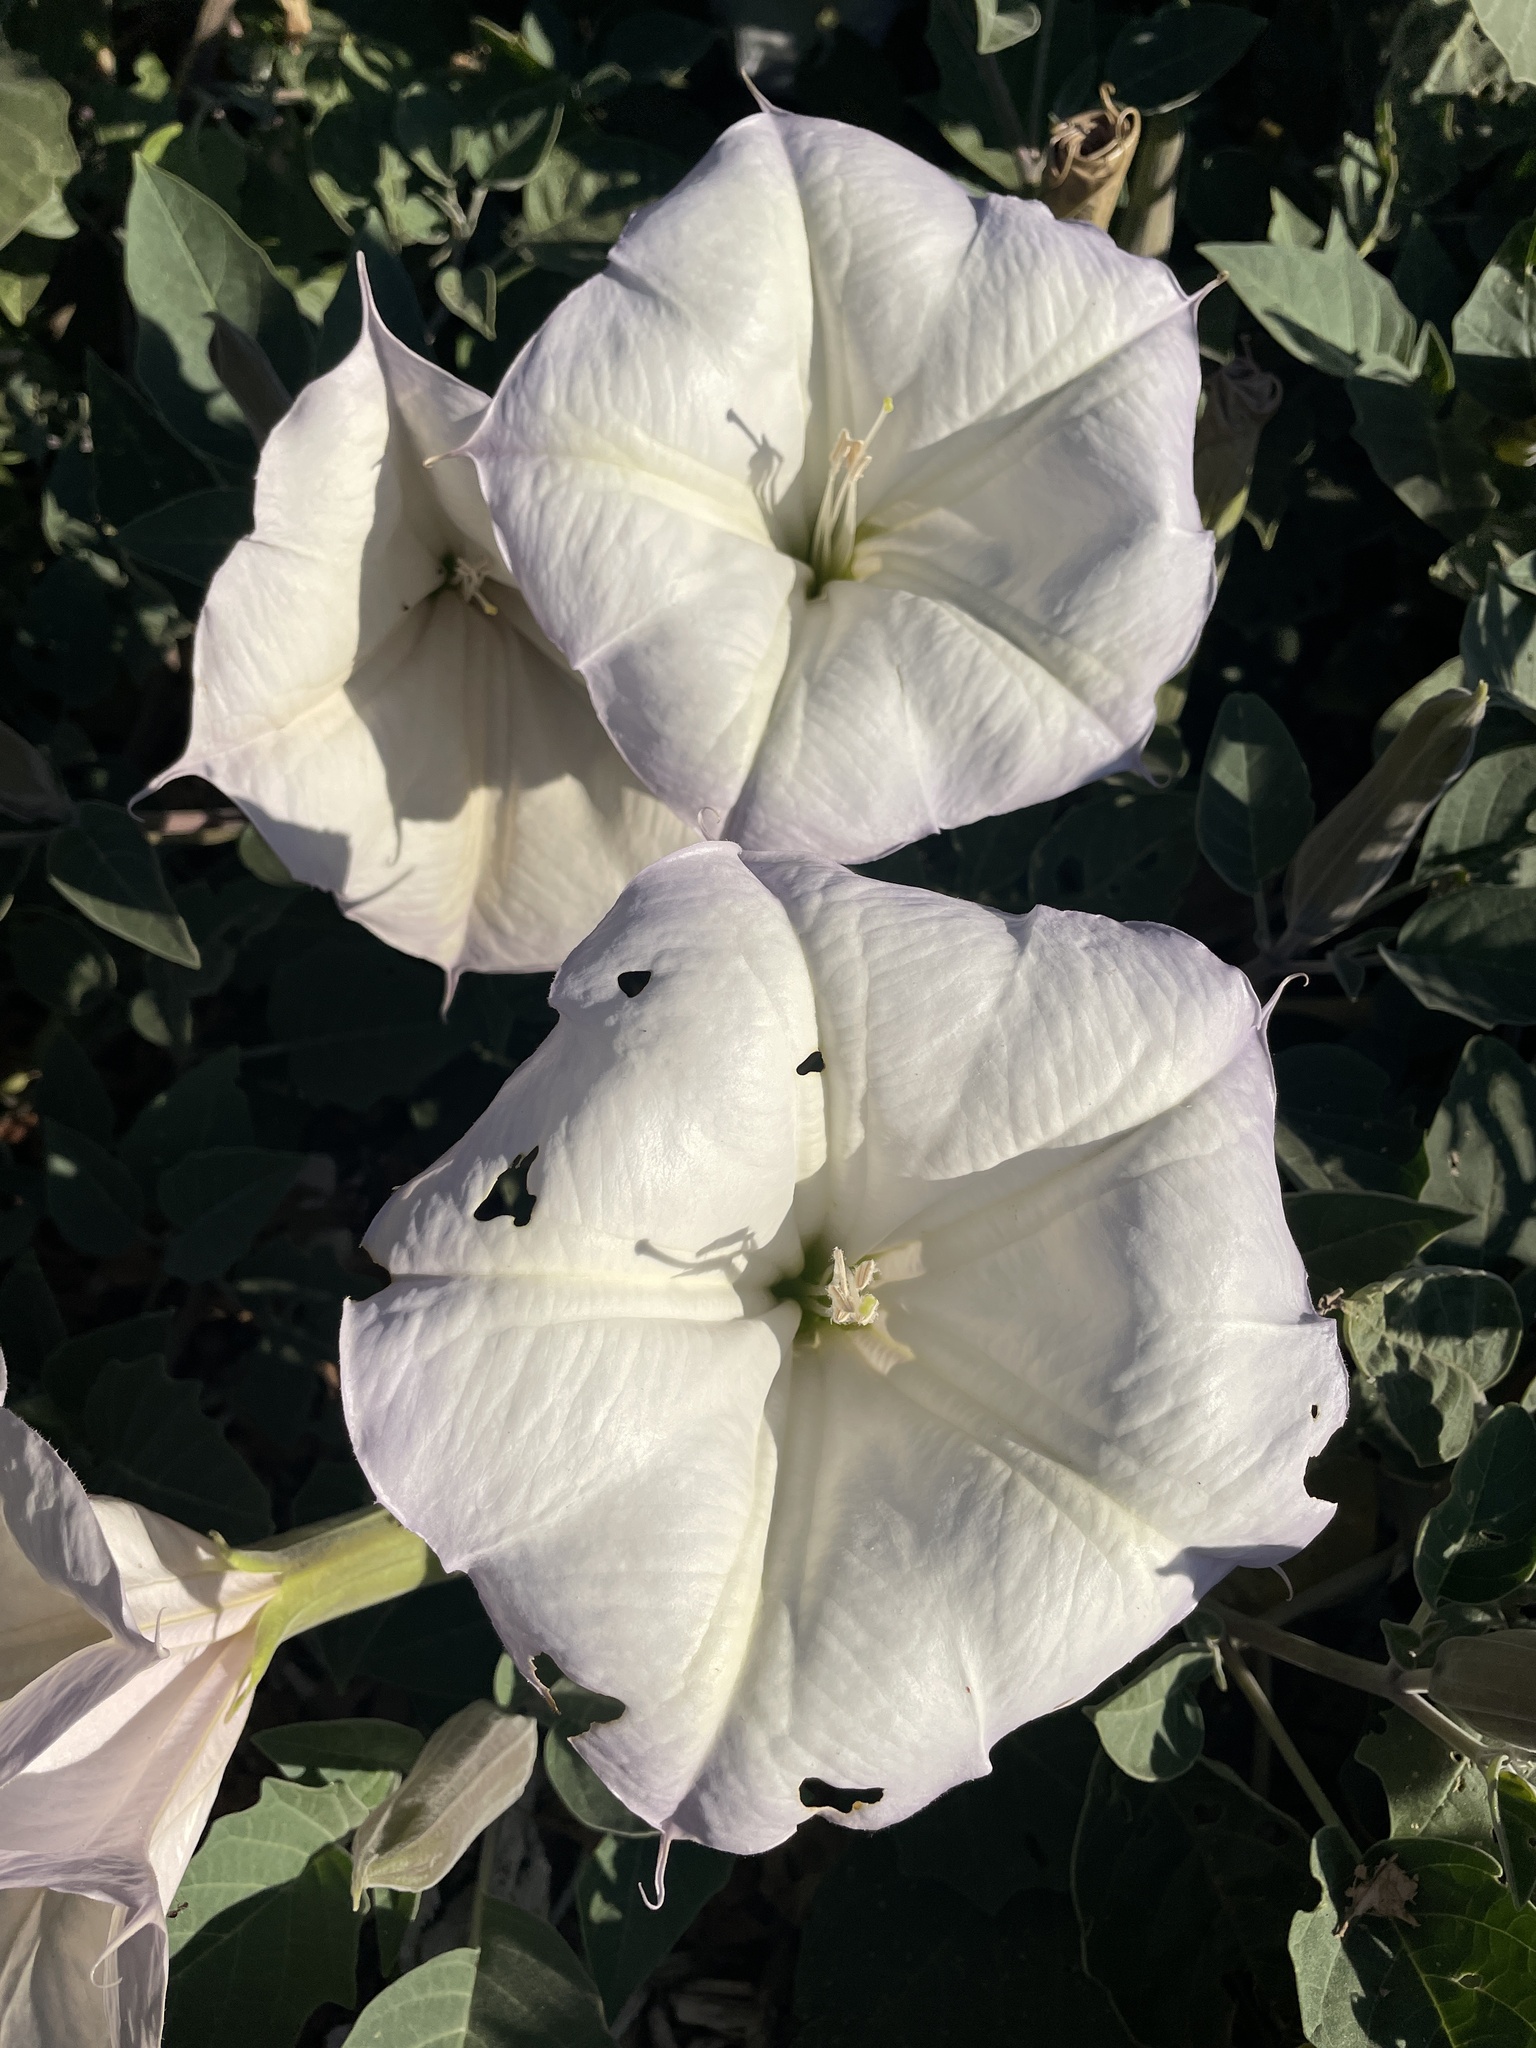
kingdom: Plantae
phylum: Tracheophyta
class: Magnoliopsida
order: Solanales
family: Solanaceae
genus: Datura
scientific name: Datura wrightii
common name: Sacred thorn-apple
